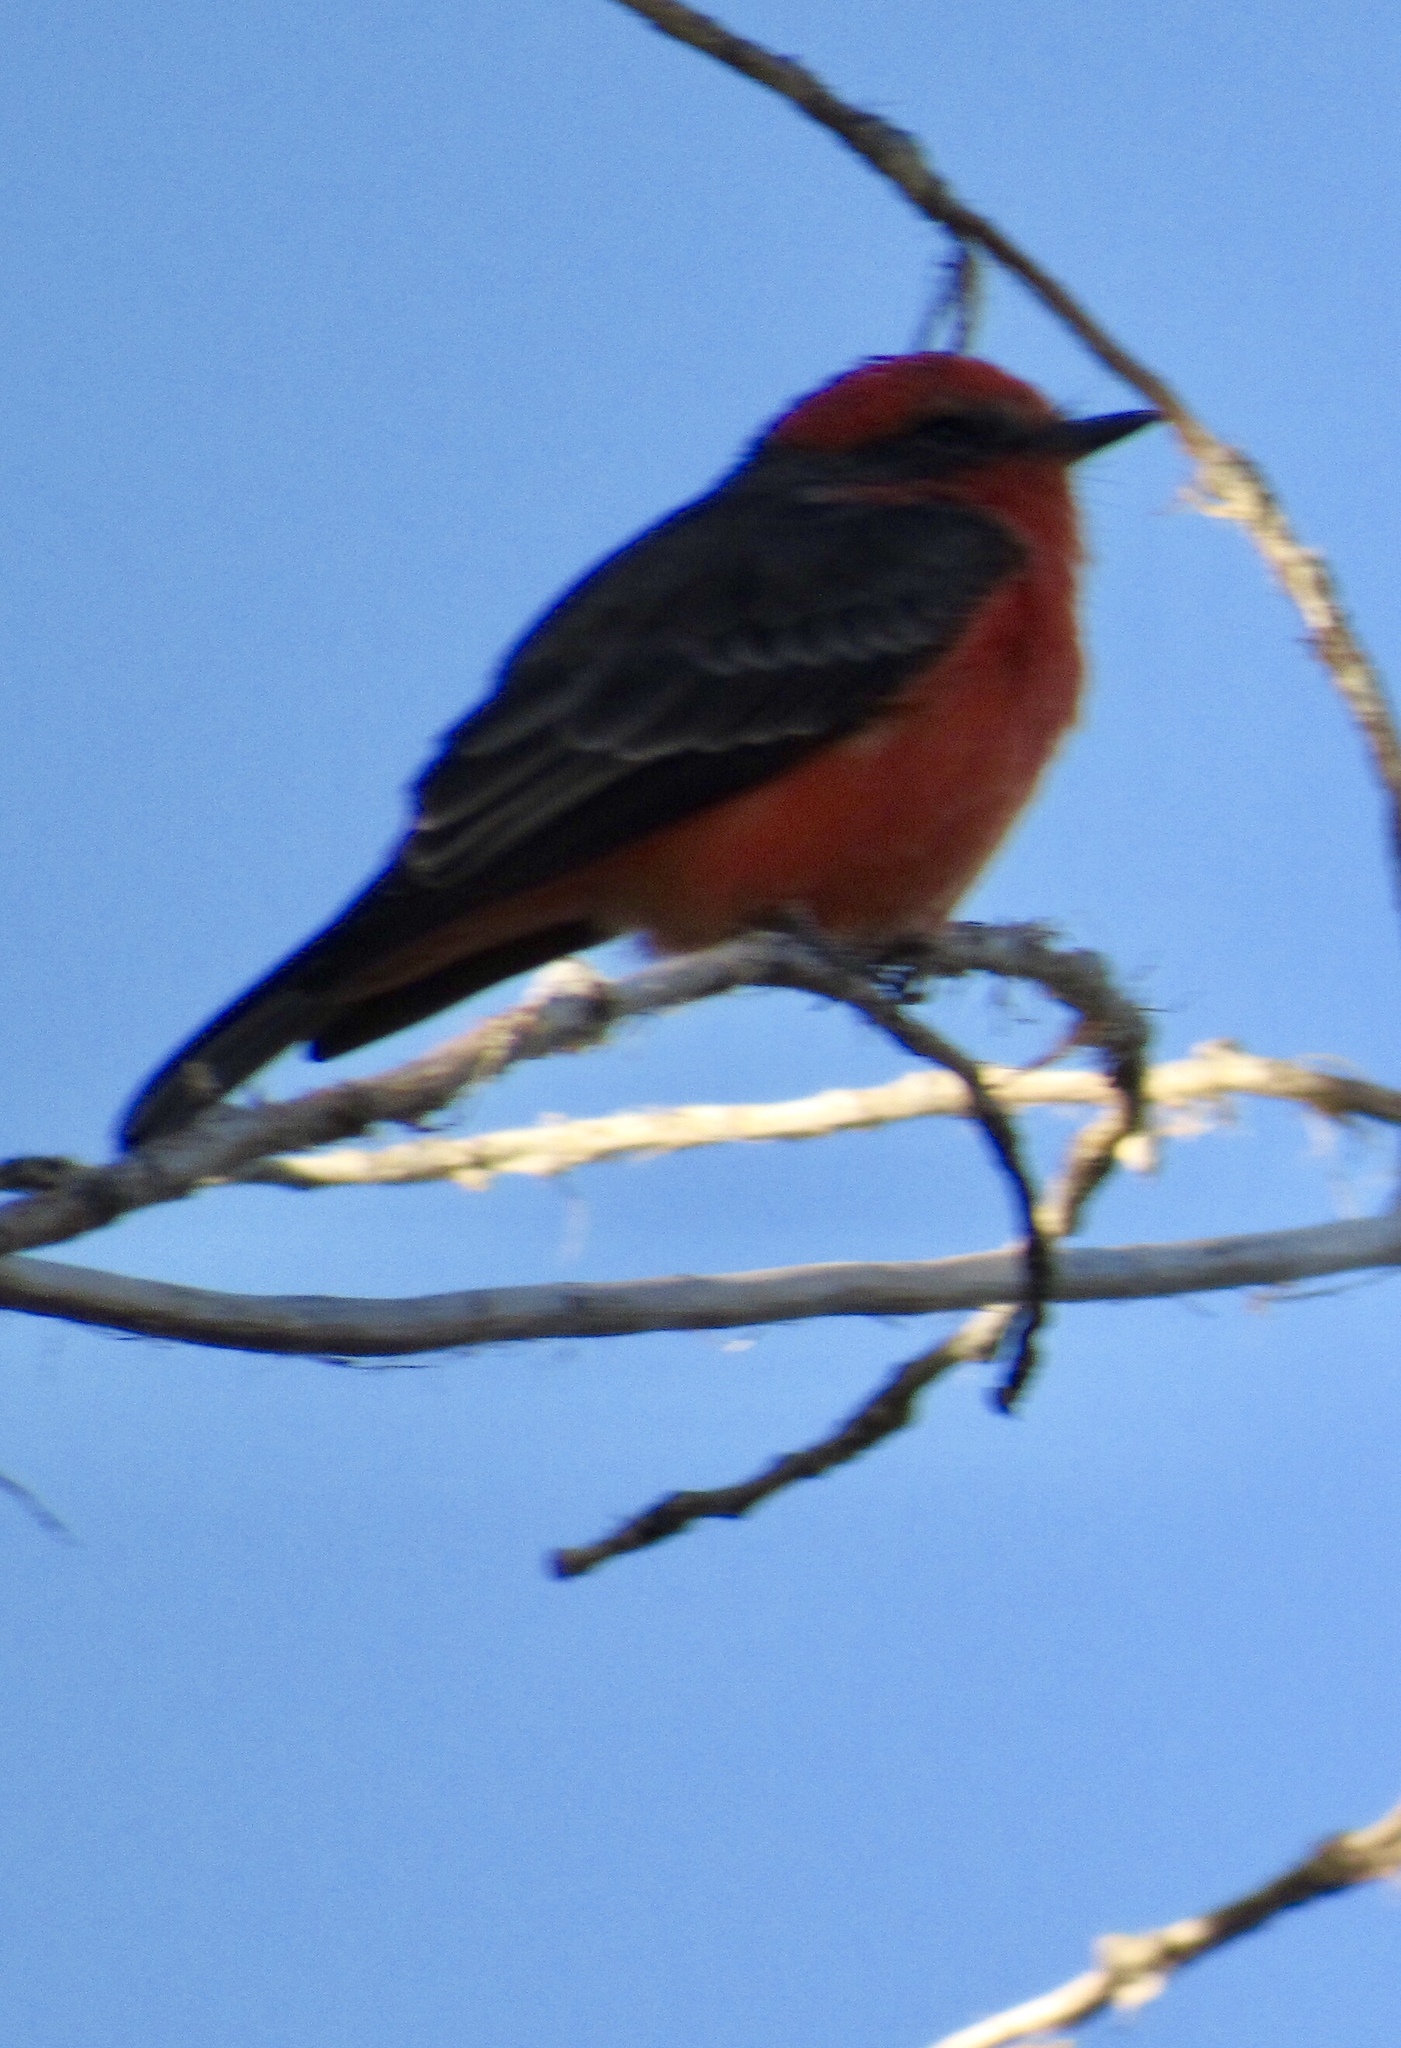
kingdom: Animalia
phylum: Chordata
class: Aves
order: Passeriformes
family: Tyrannidae
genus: Pyrocephalus
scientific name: Pyrocephalus rubinus
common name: Vermilion flycatcher
